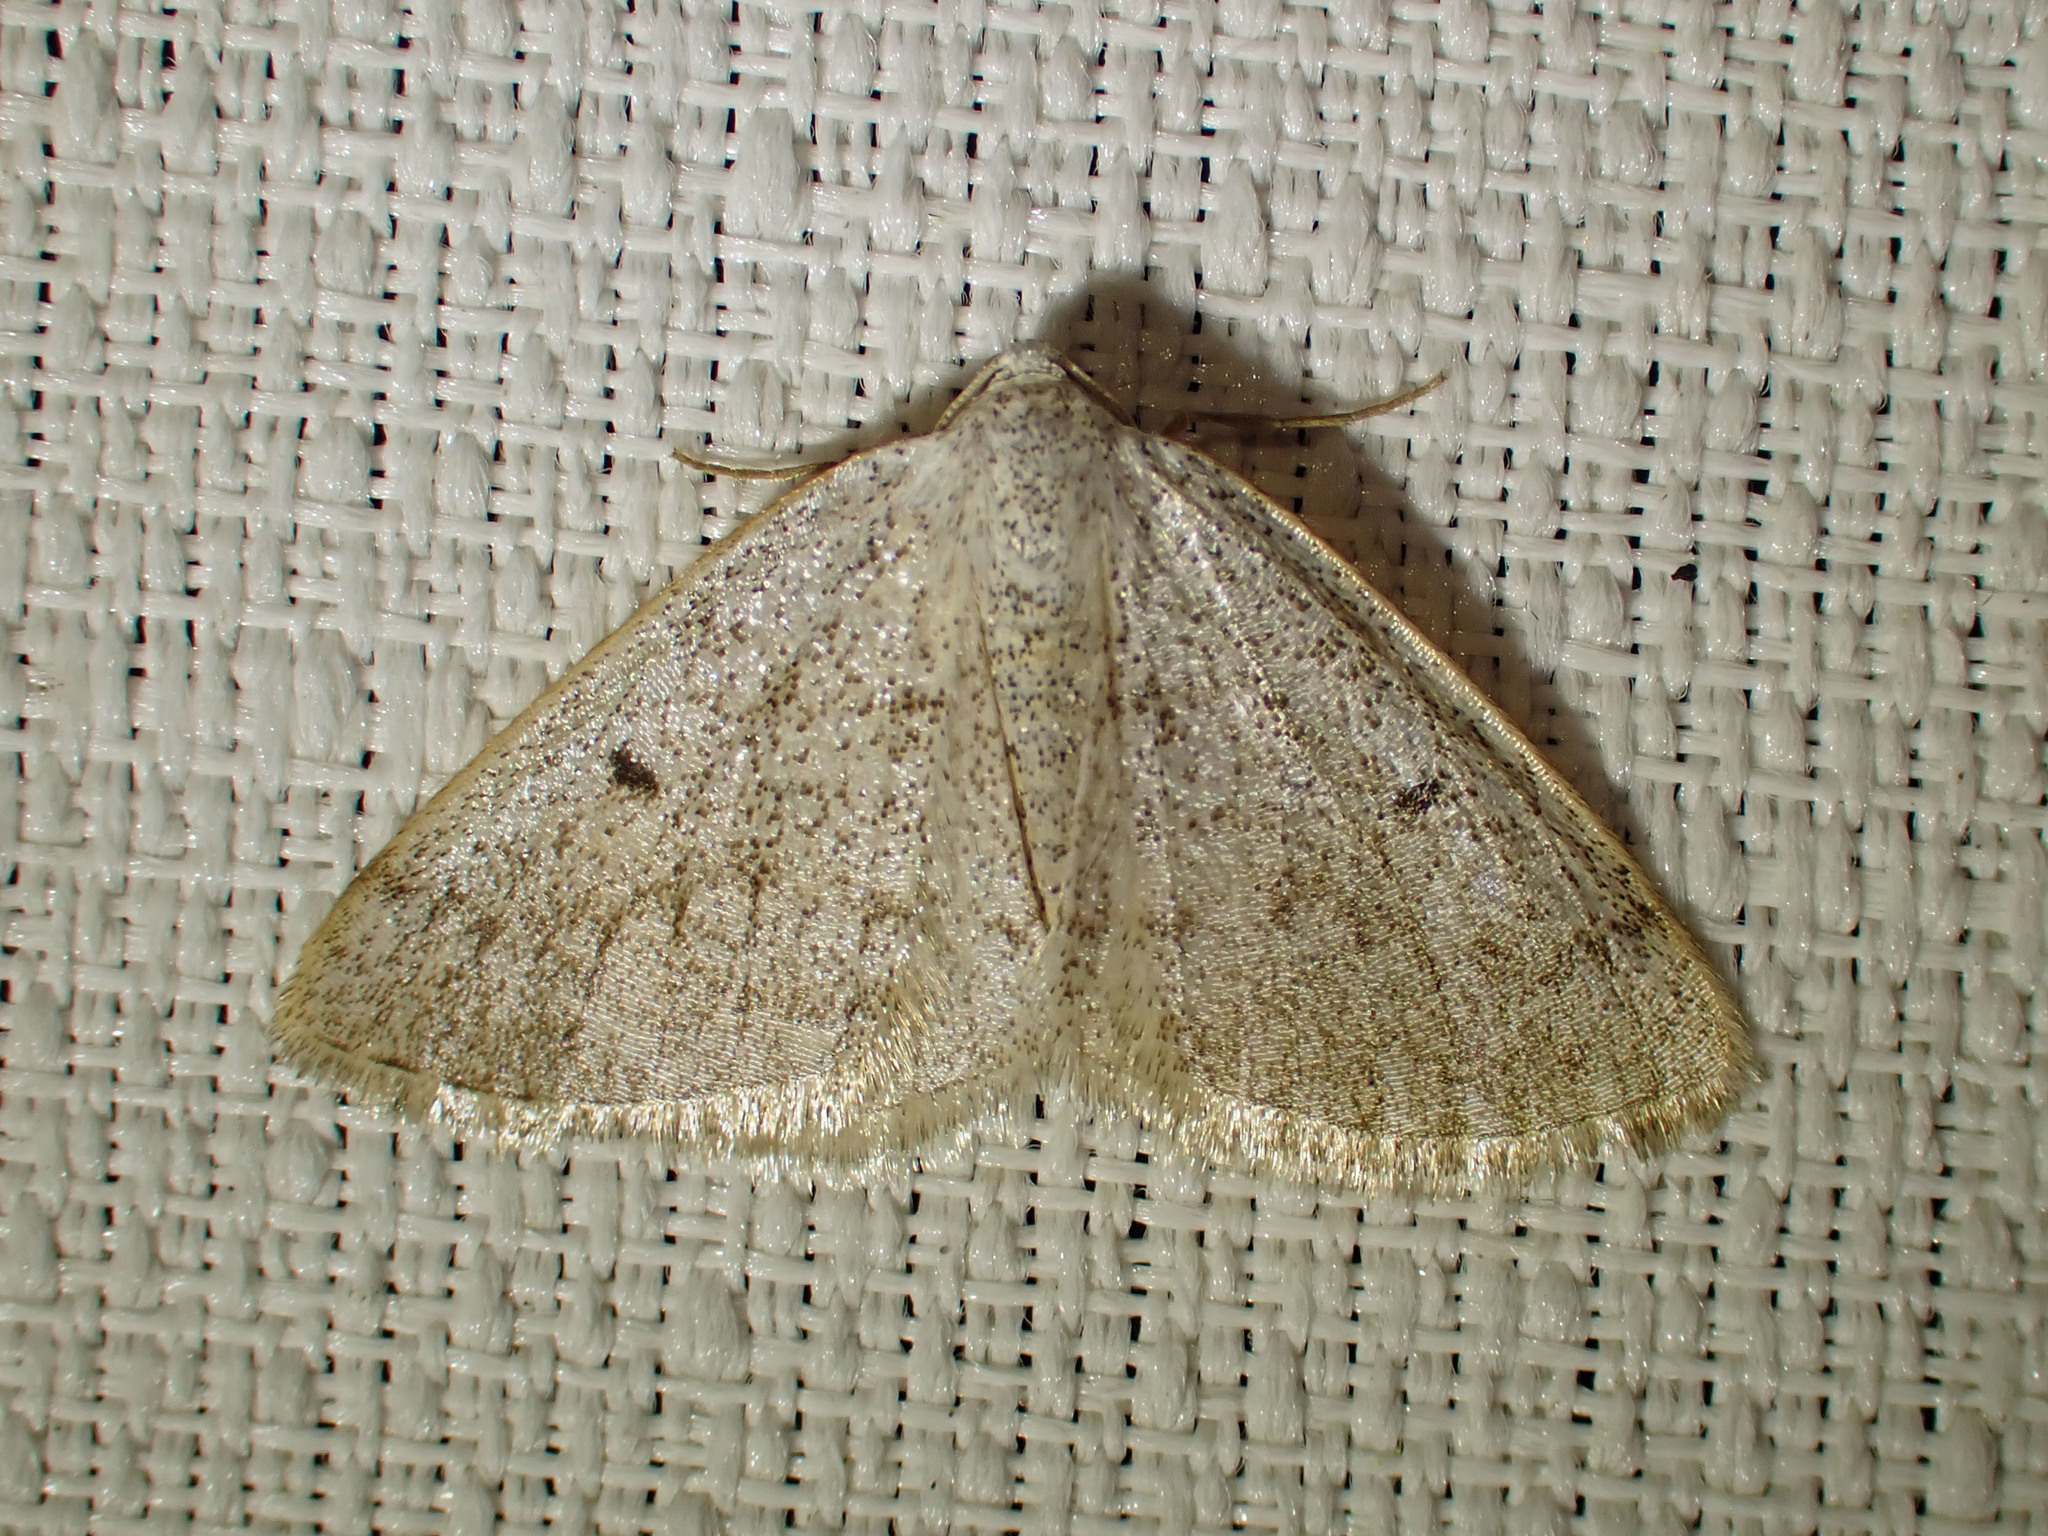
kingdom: Animalia
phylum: Arthropoda
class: Insecta
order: Lepidoptera
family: Geometridae
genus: Lomographa
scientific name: Lomographa glomeraria
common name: Gray spring moth
